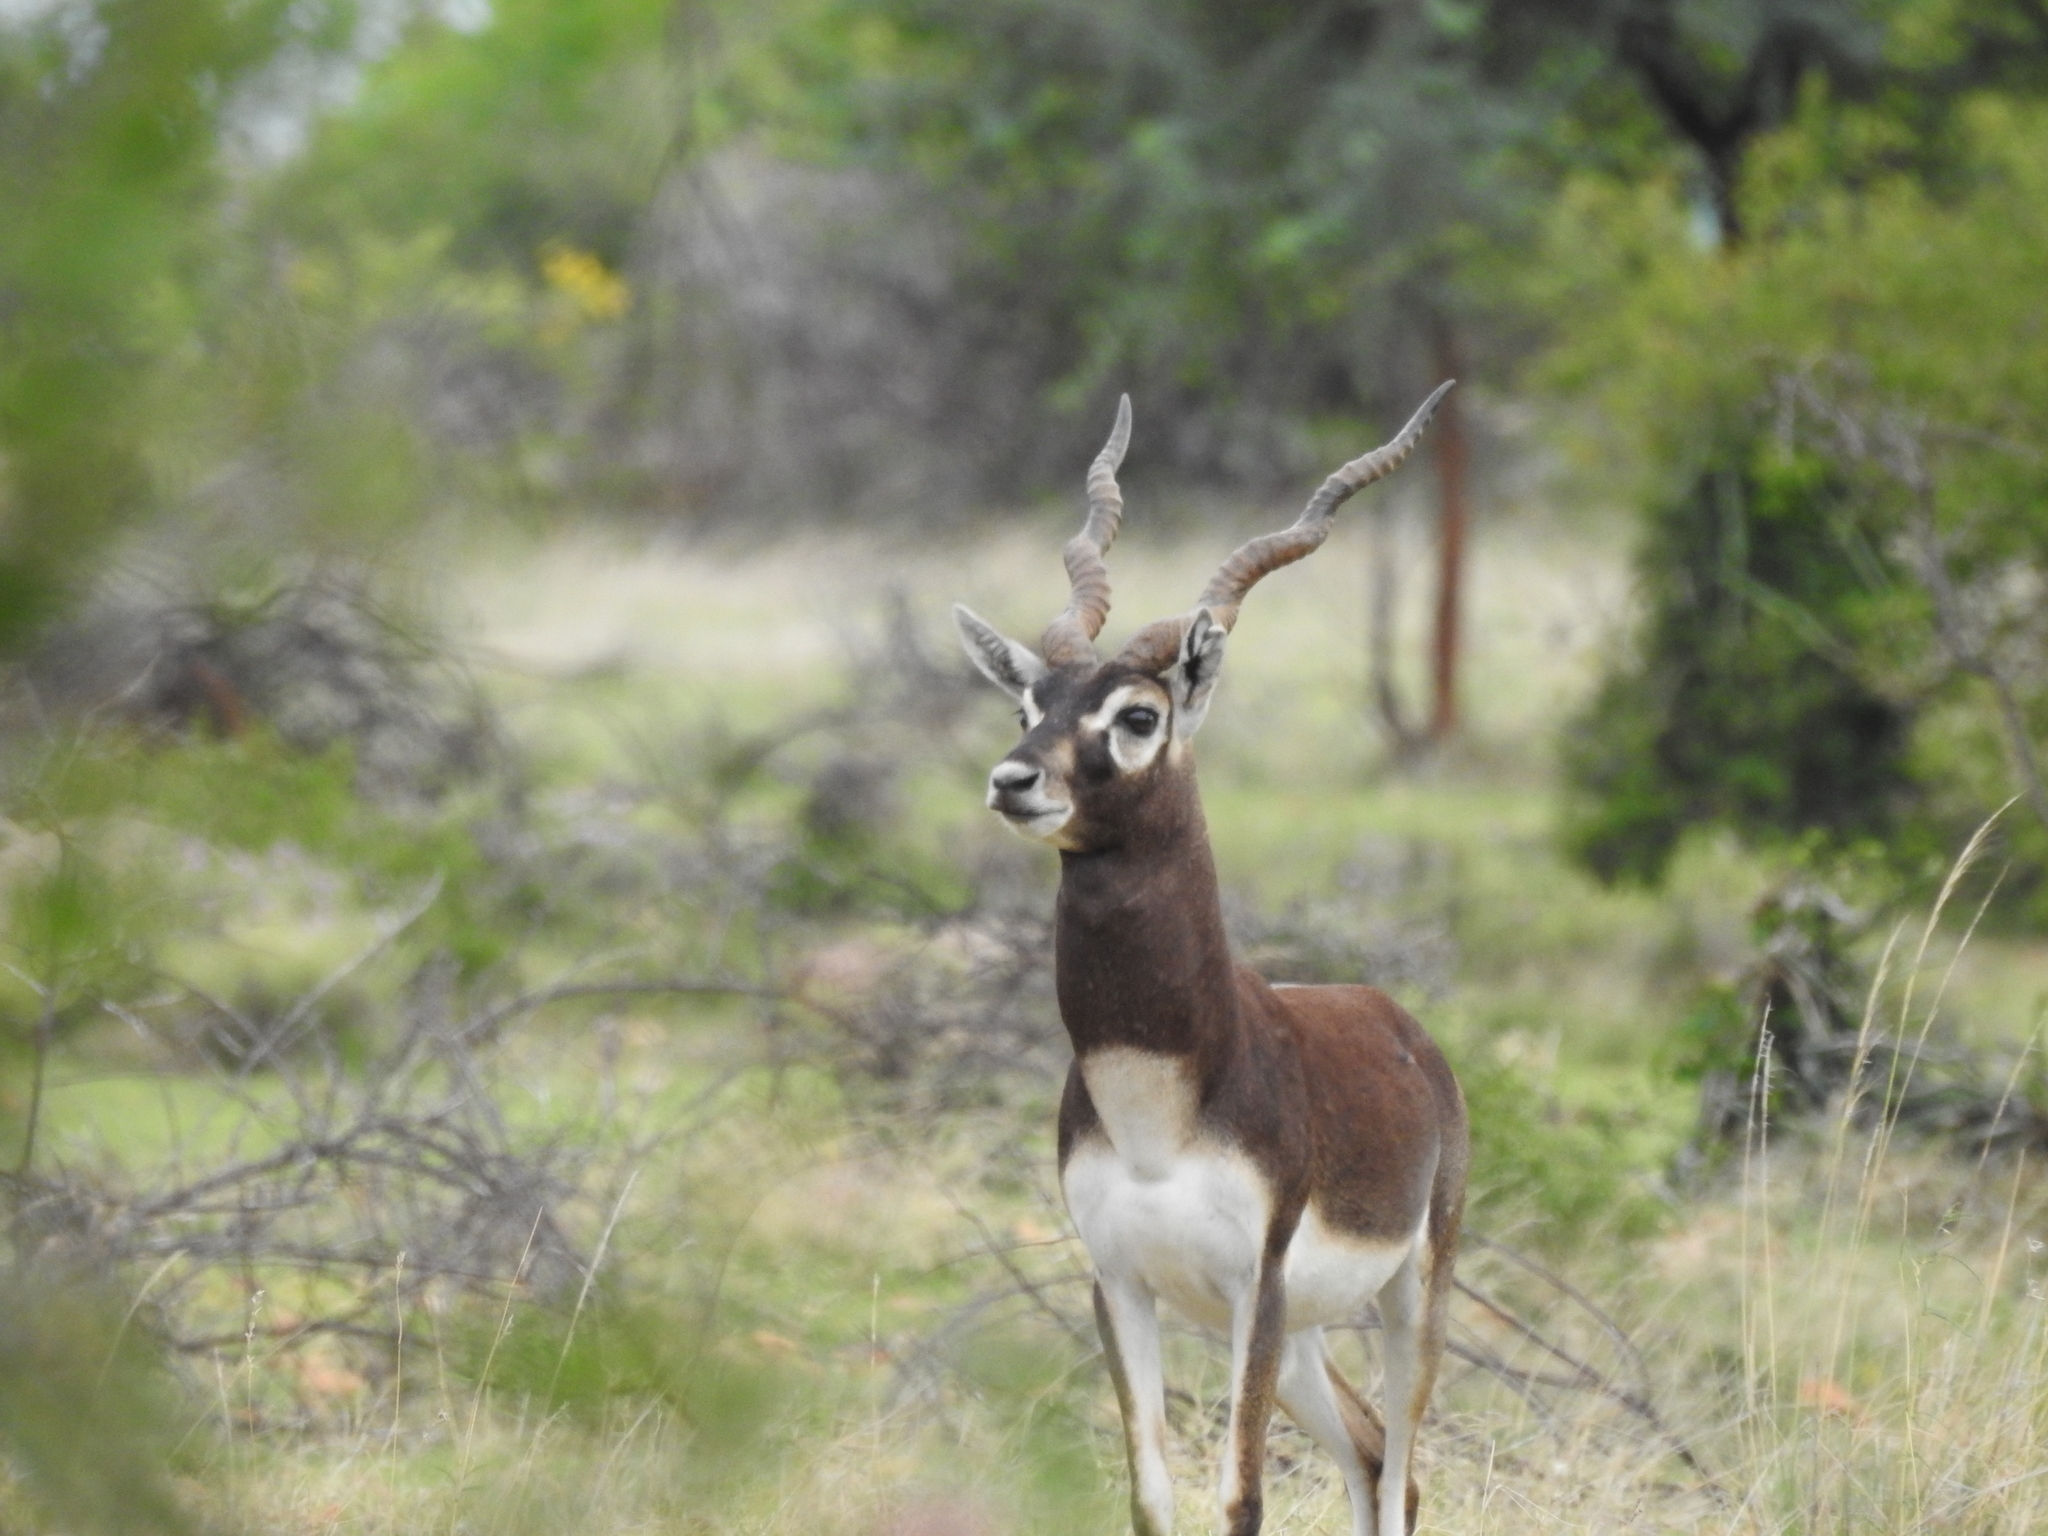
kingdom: Animalia
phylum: Chordata
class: Mammalia
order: Artiodactyla
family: Bovidae
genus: Antilope
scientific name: Antilope cervicapra
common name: Blackbuck
